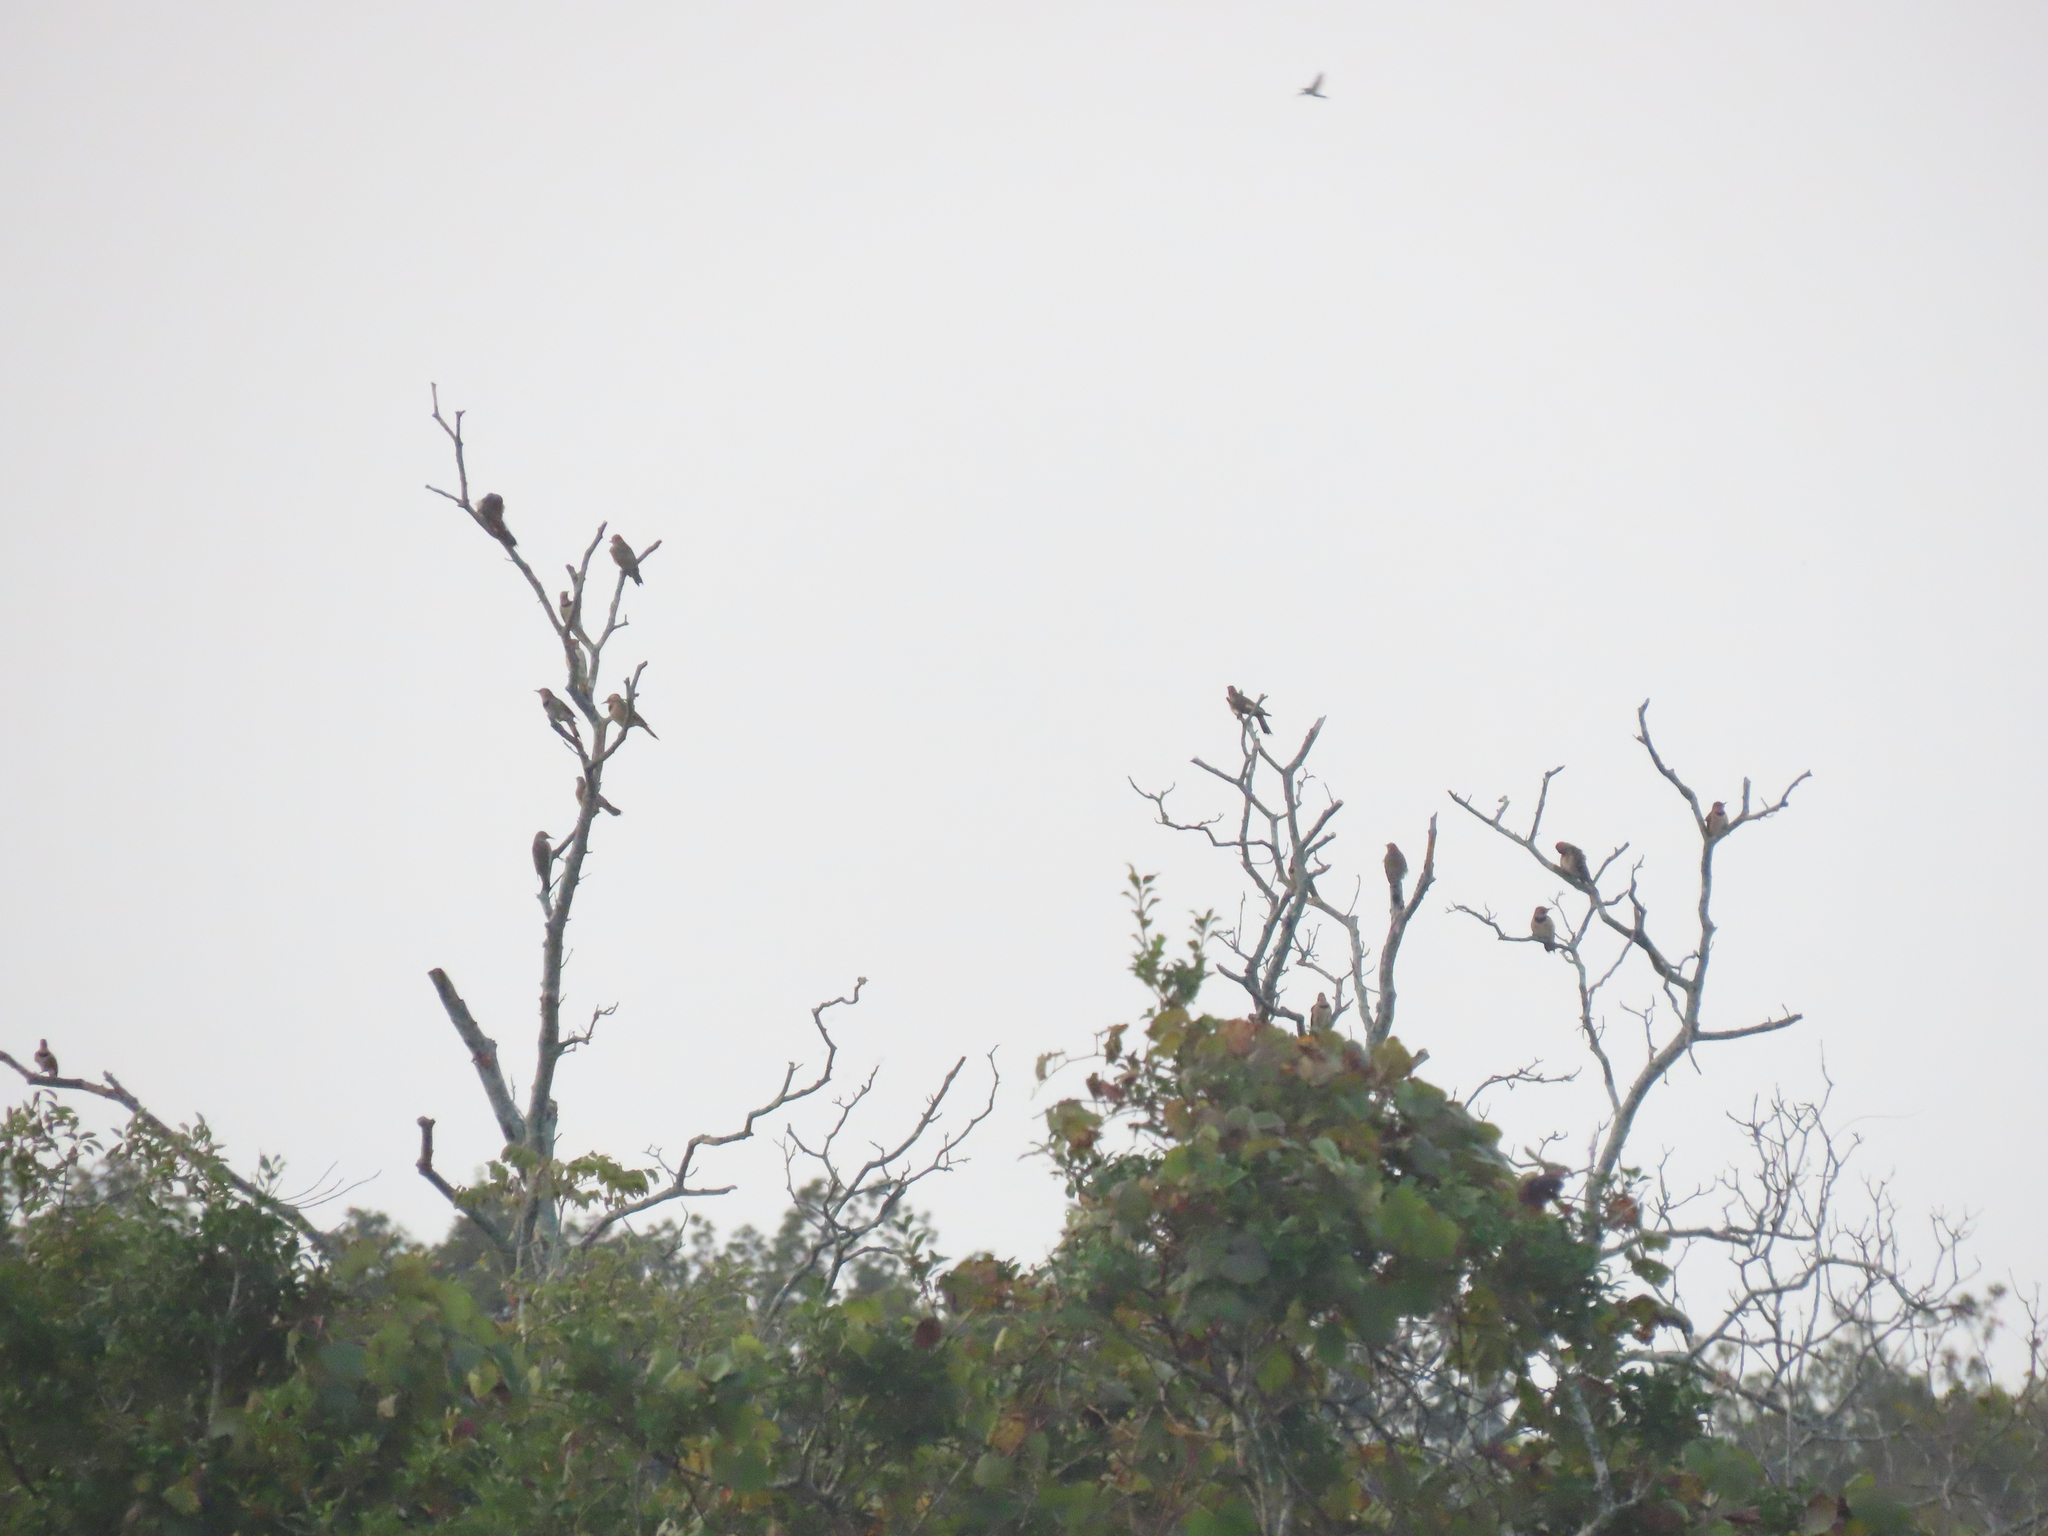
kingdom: Animalia
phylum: Chordata
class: Aves
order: Piciformes
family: Picidae
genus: Colaptes
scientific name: Colaptes auratus
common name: Northern flicker
